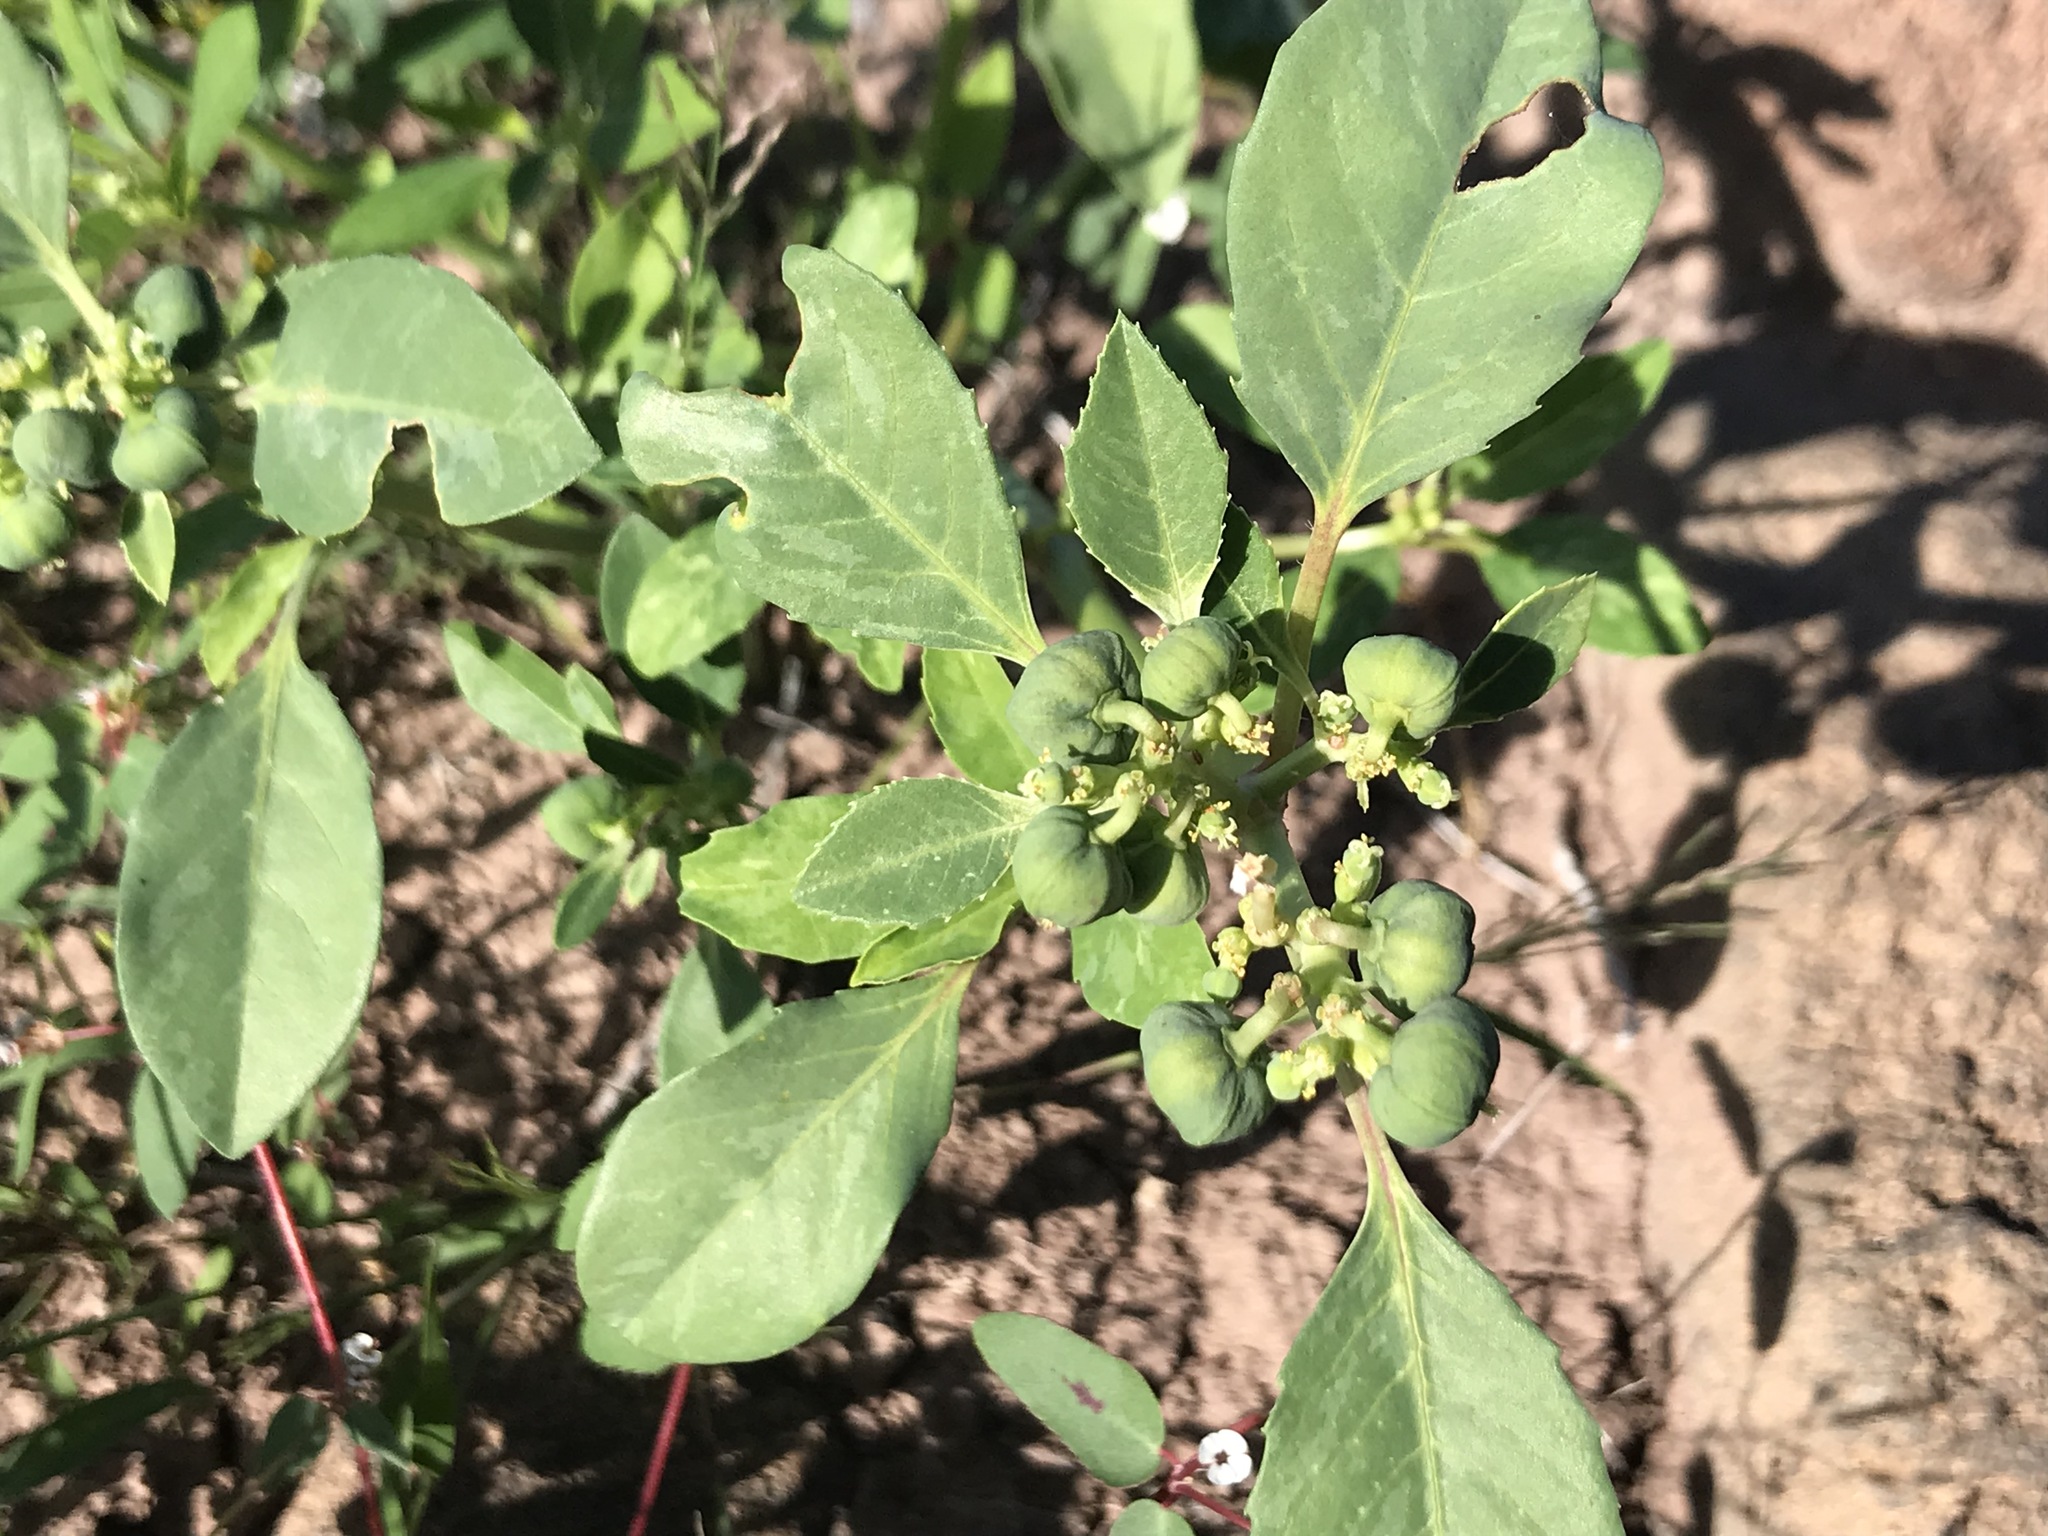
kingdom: Plantae
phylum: Tracheophyta
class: Magnoliopsida
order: Malpighiales
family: Euphorbiaceae
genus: Euphorbia
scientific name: Euphorbia pumicicola
